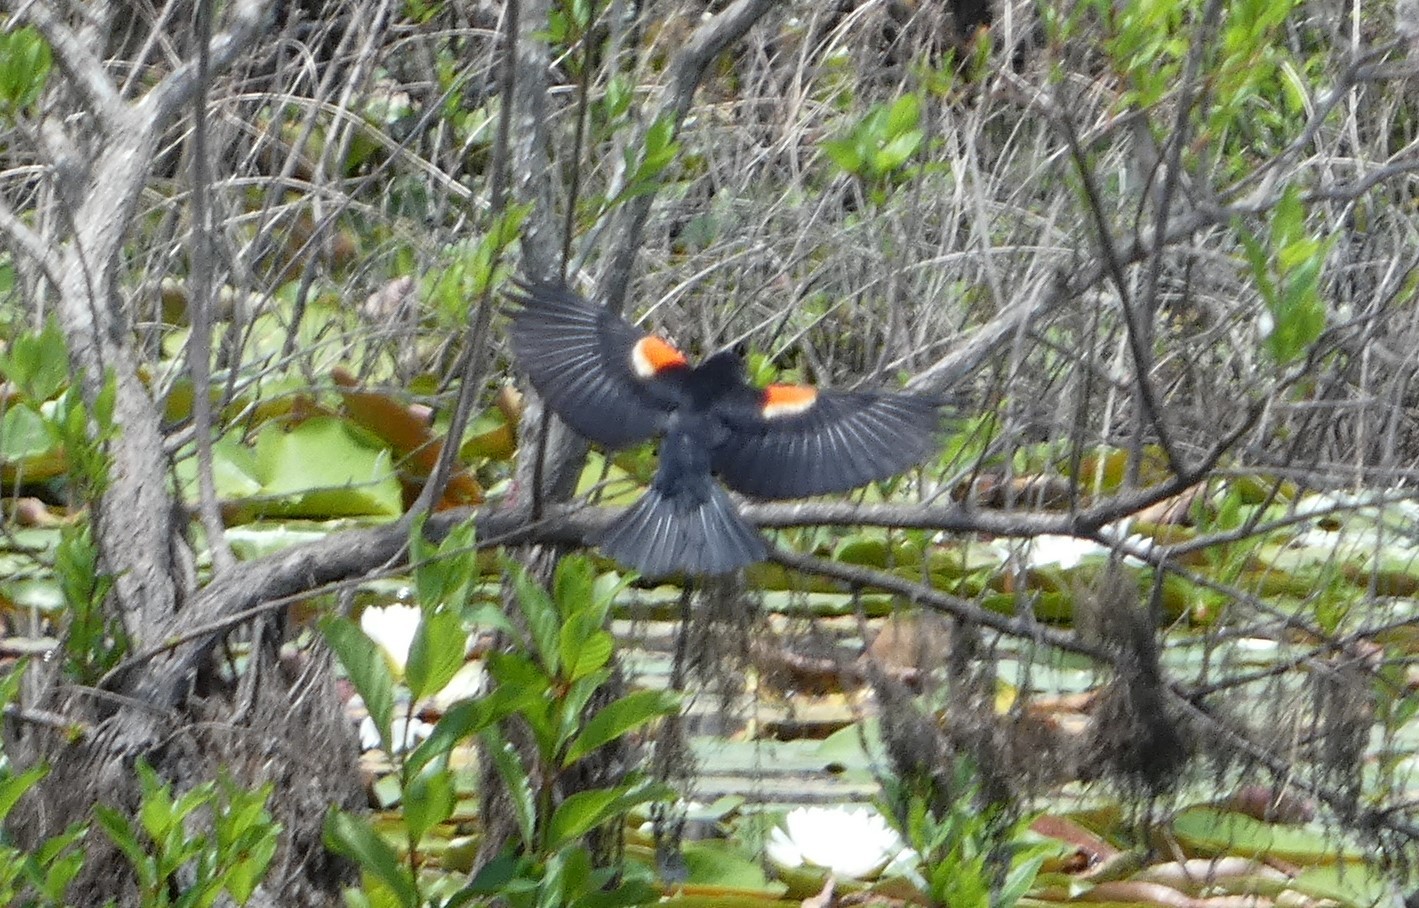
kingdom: Animalia
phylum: Chordata
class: Aves
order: Passeriformes
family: Icteridae
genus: Agelaius
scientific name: Agelaius phoeniceus
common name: Red-winged blackbird
